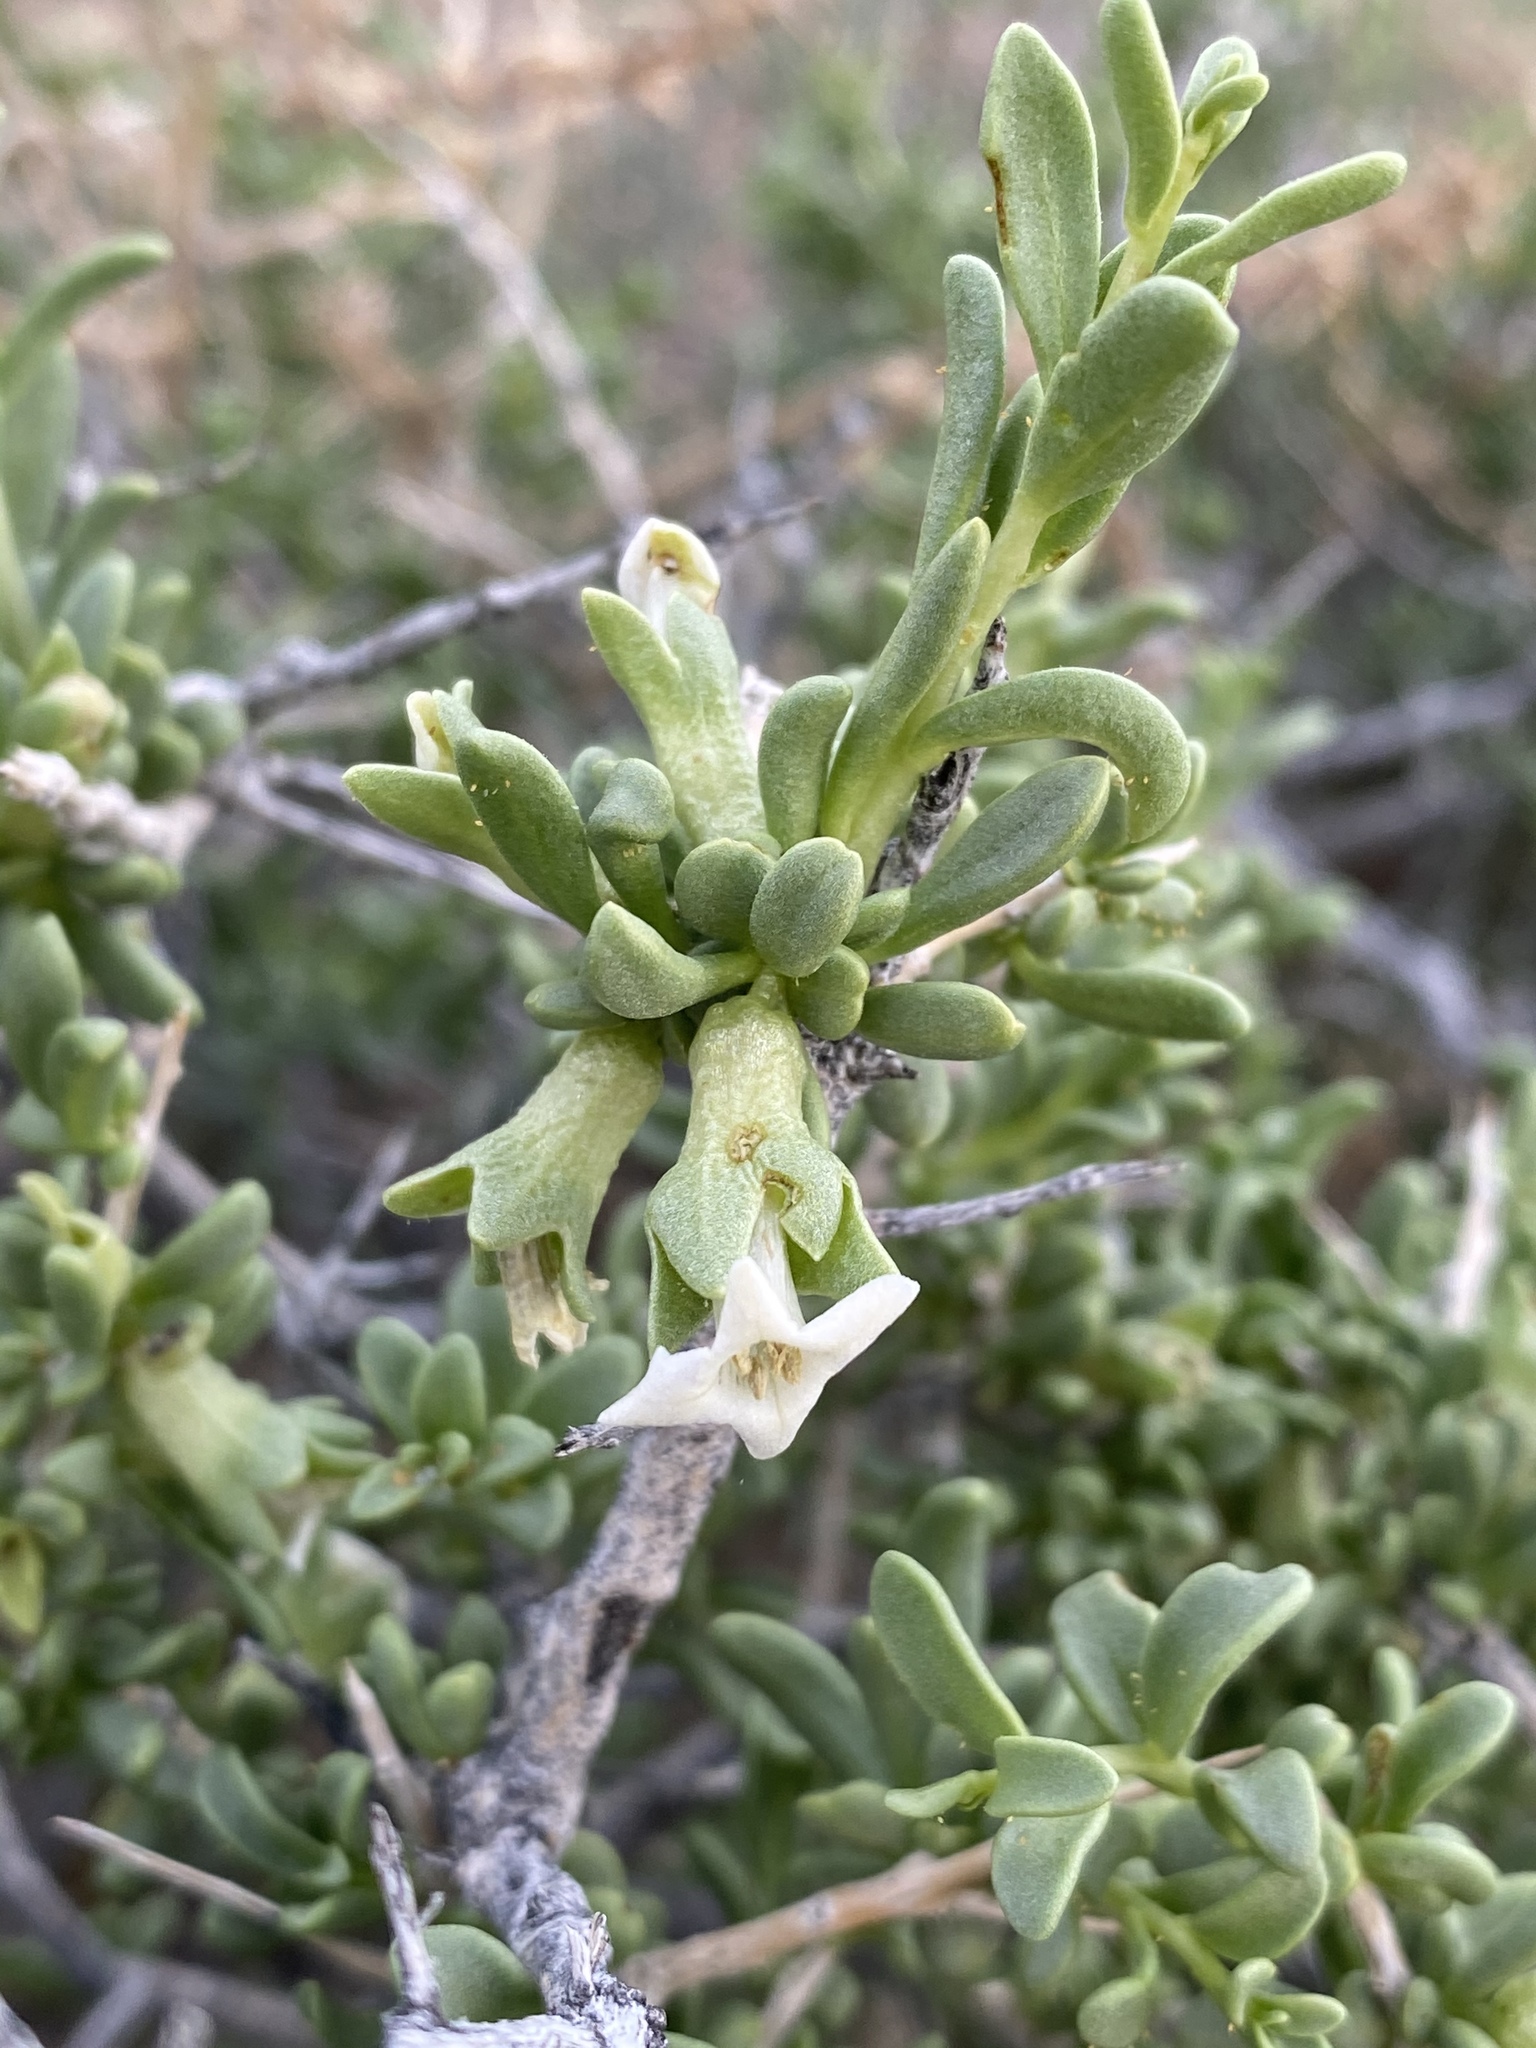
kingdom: Plantae
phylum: Tracheophyta
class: Magnoliopsida
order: Solanales
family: Solanaceae
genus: Lycium
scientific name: Lycium shockleyi
